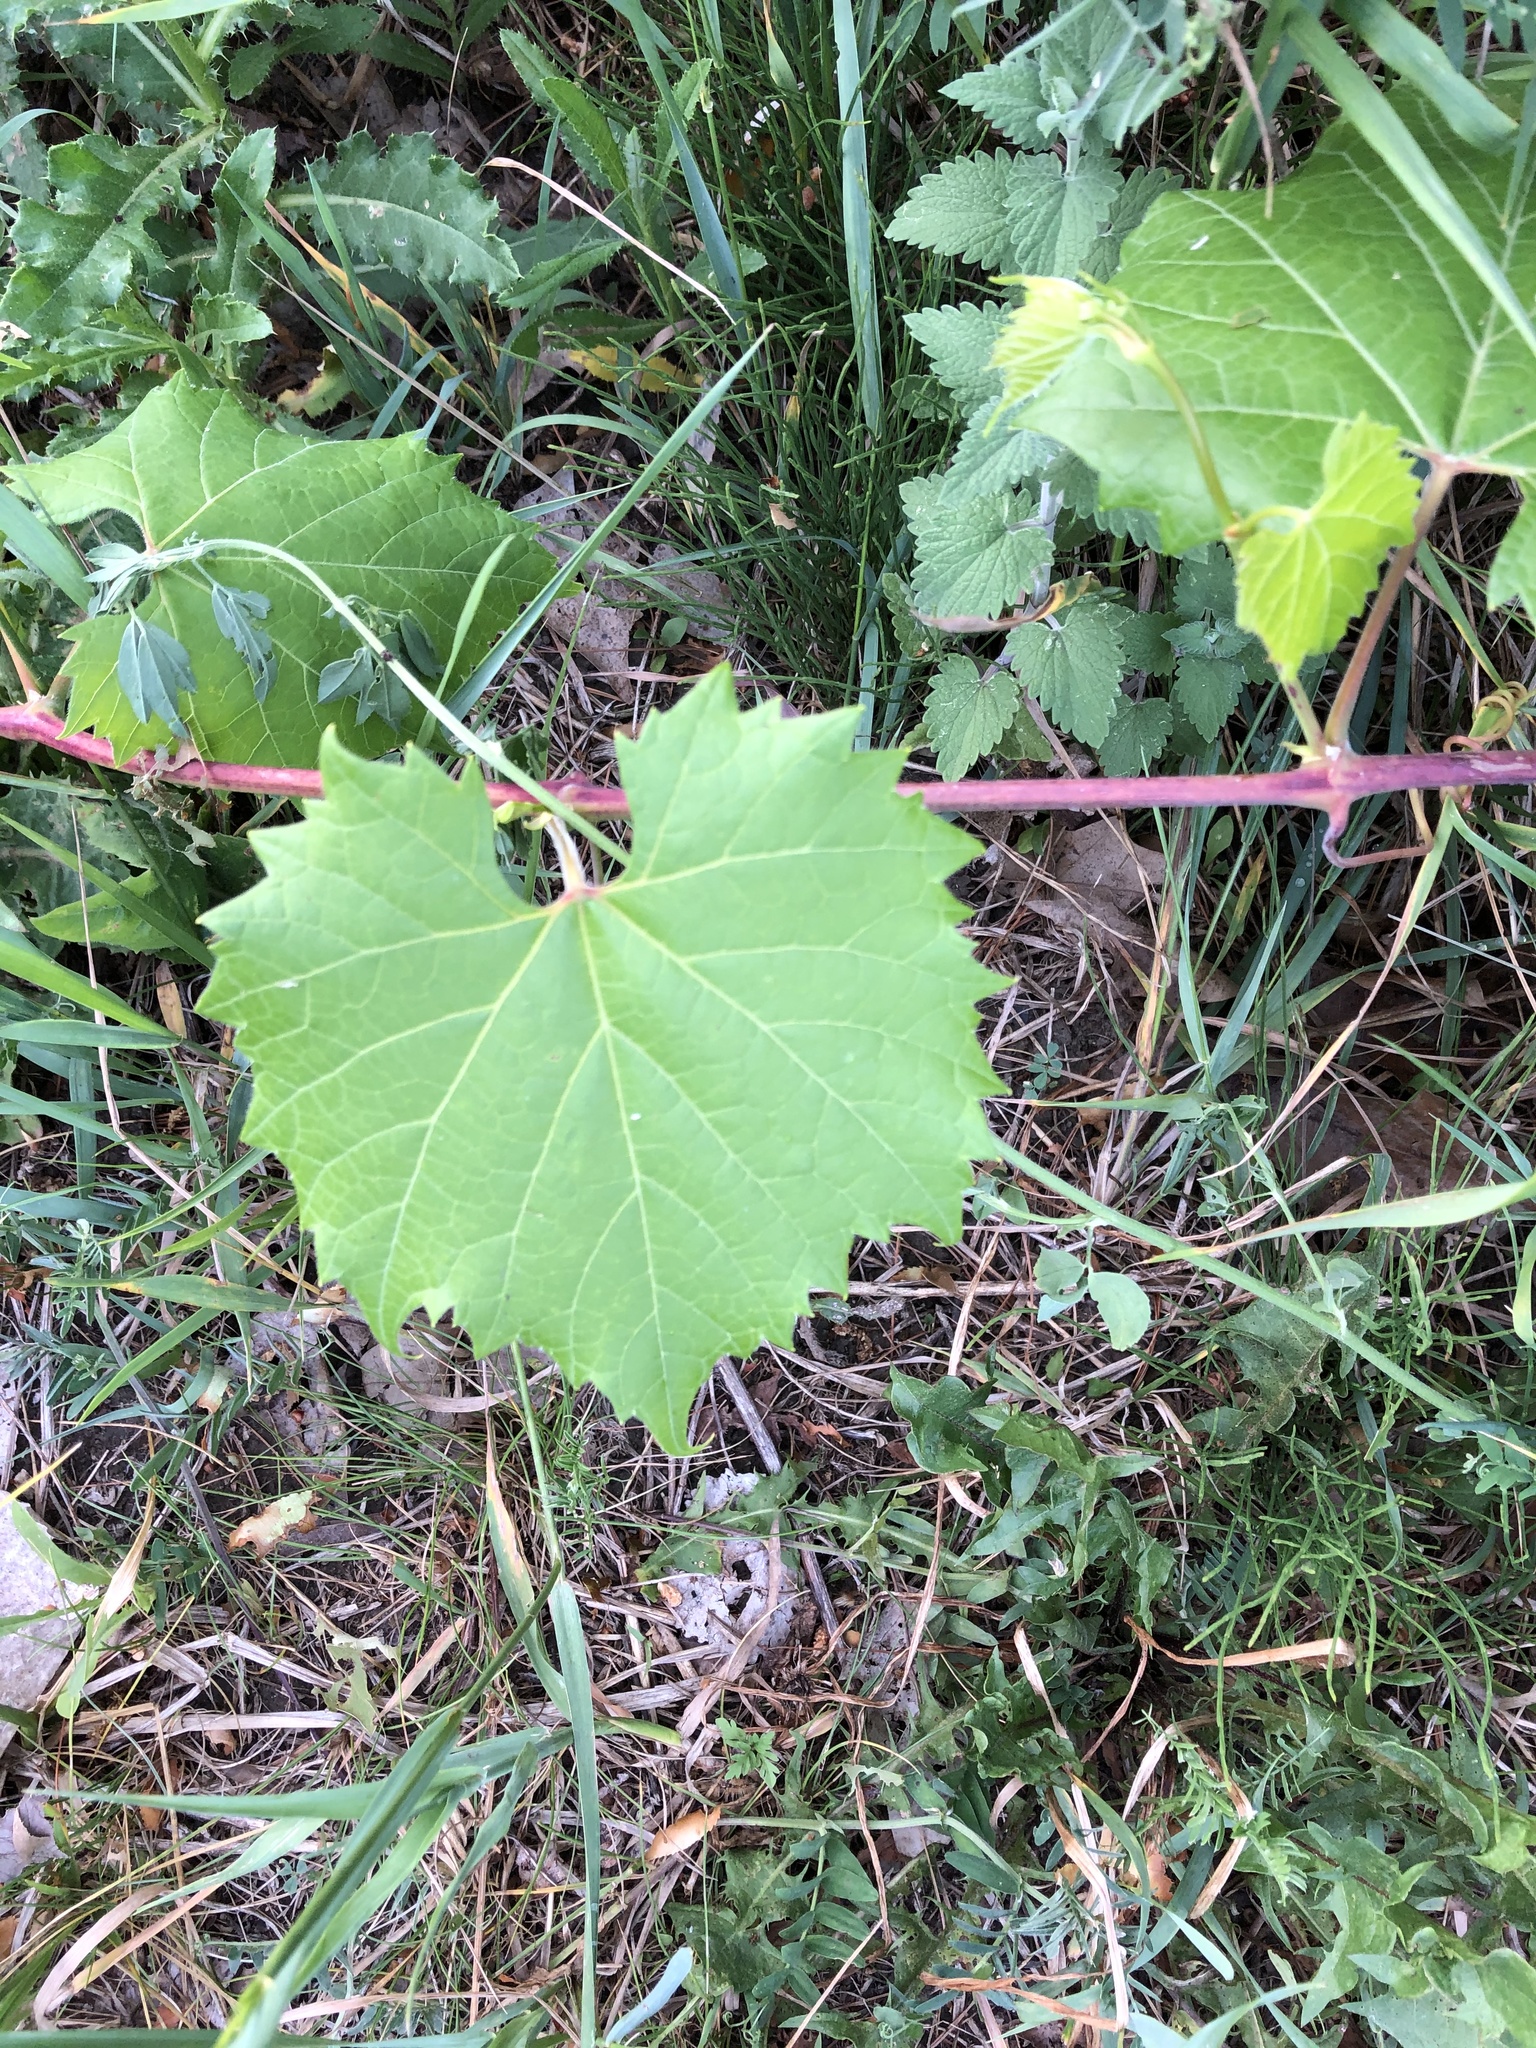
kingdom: Plantae
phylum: Tracheophyta
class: Magnoliopsida
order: Vitales
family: Vitaceae
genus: Vitis
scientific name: Vitis riparia
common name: Frost grape
